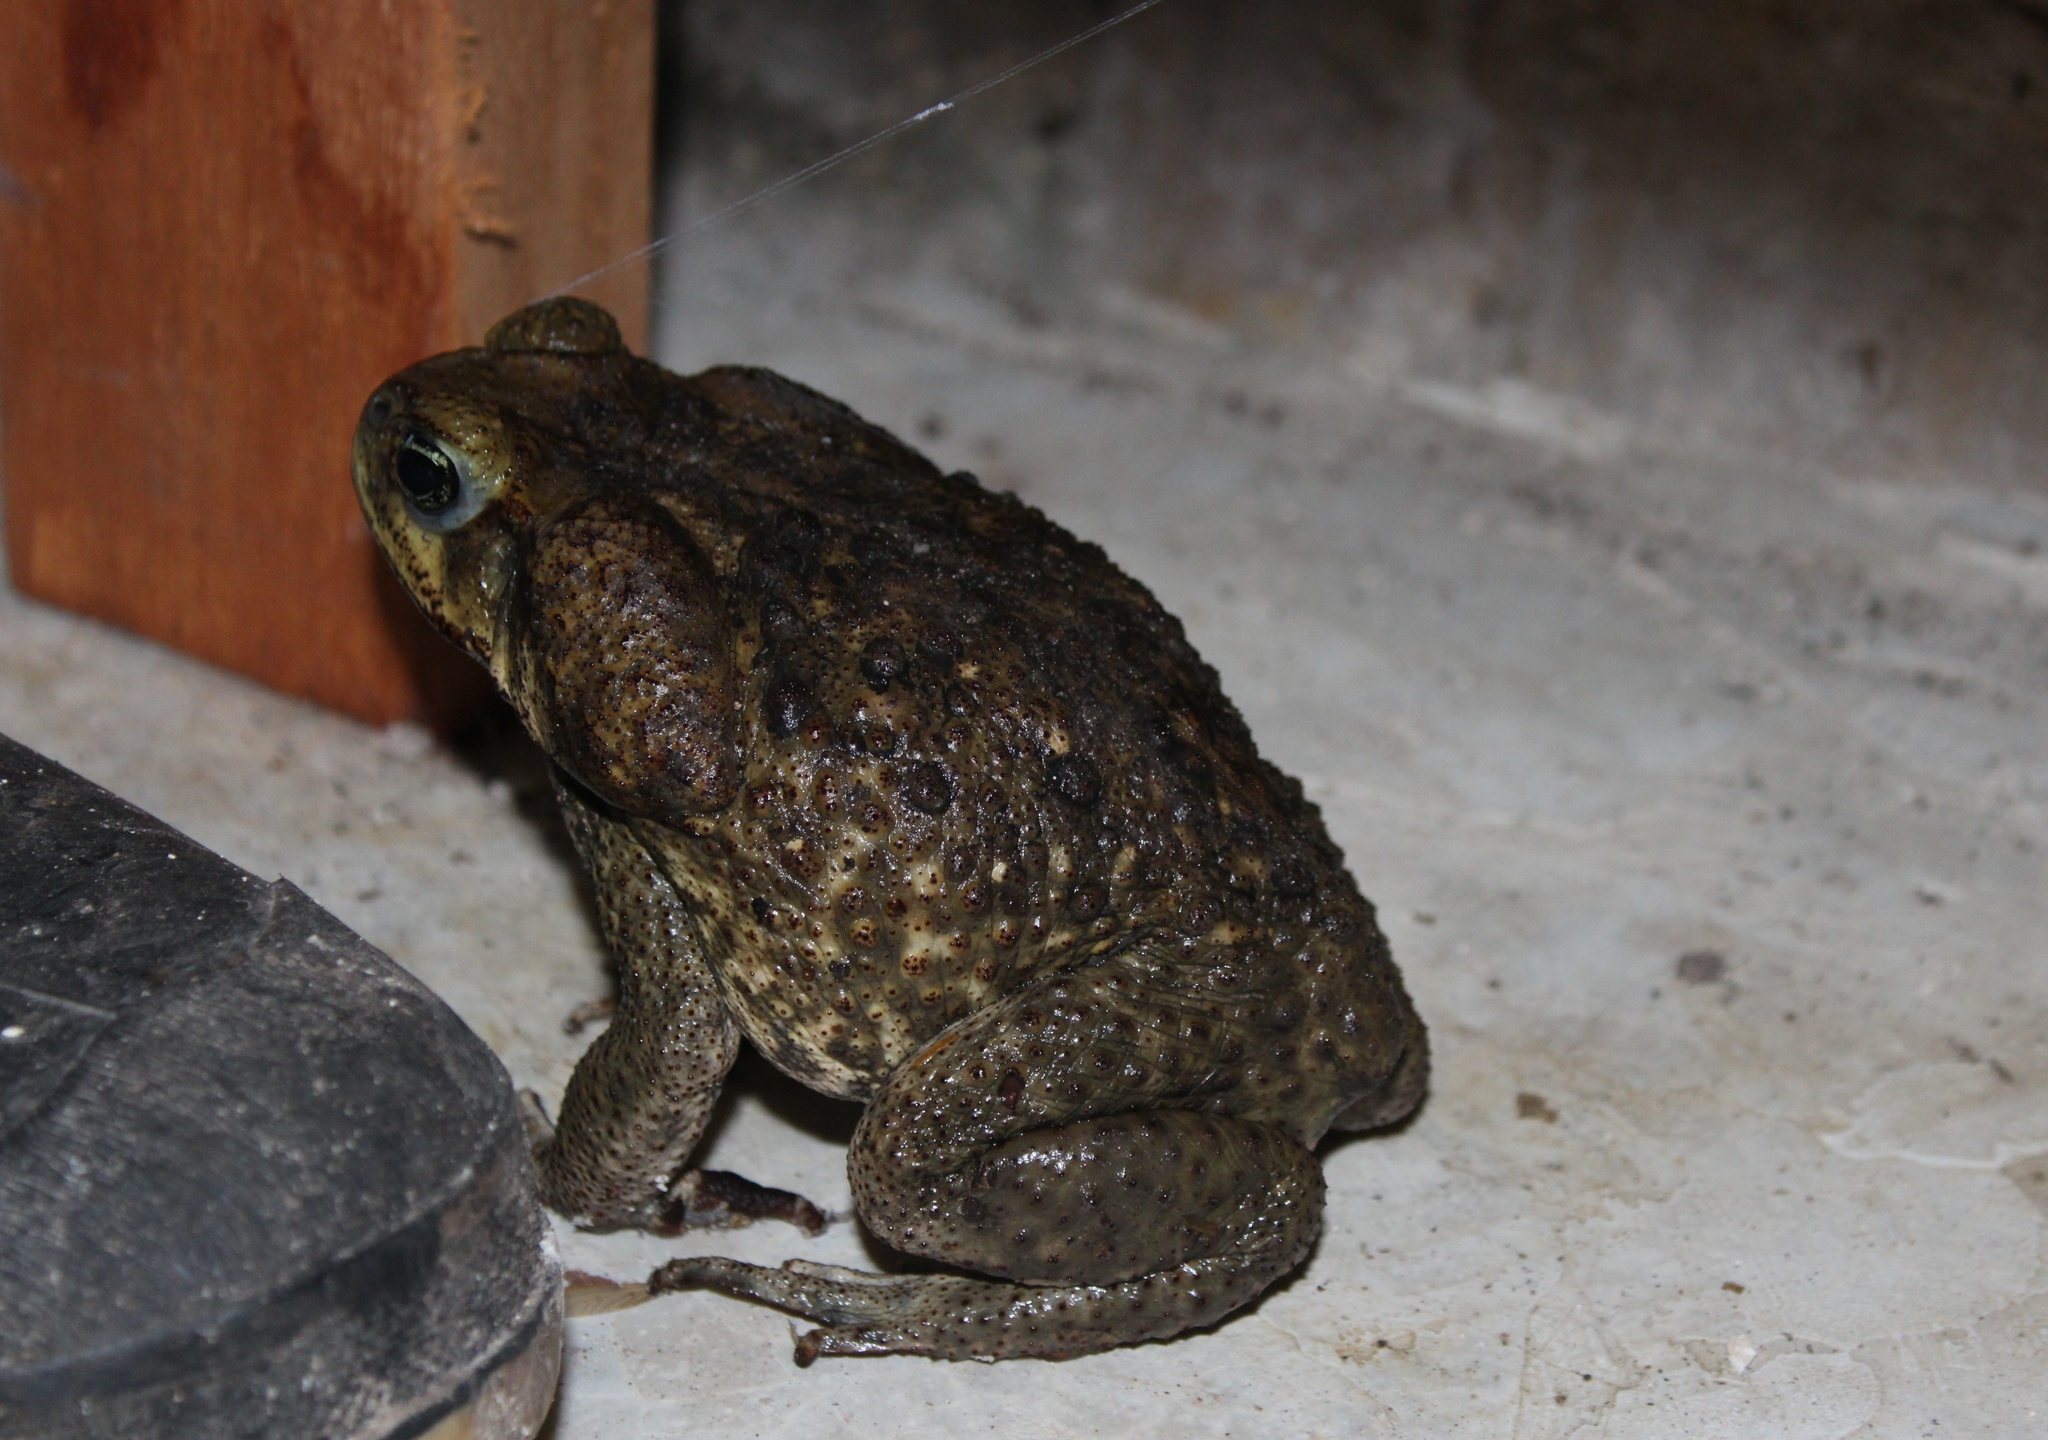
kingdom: Animalia
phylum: Chordata
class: Amphibia
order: Anura
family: Bufonidae
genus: Rhinella
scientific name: Rhinella horribilis
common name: Mesoamerican cane toad
